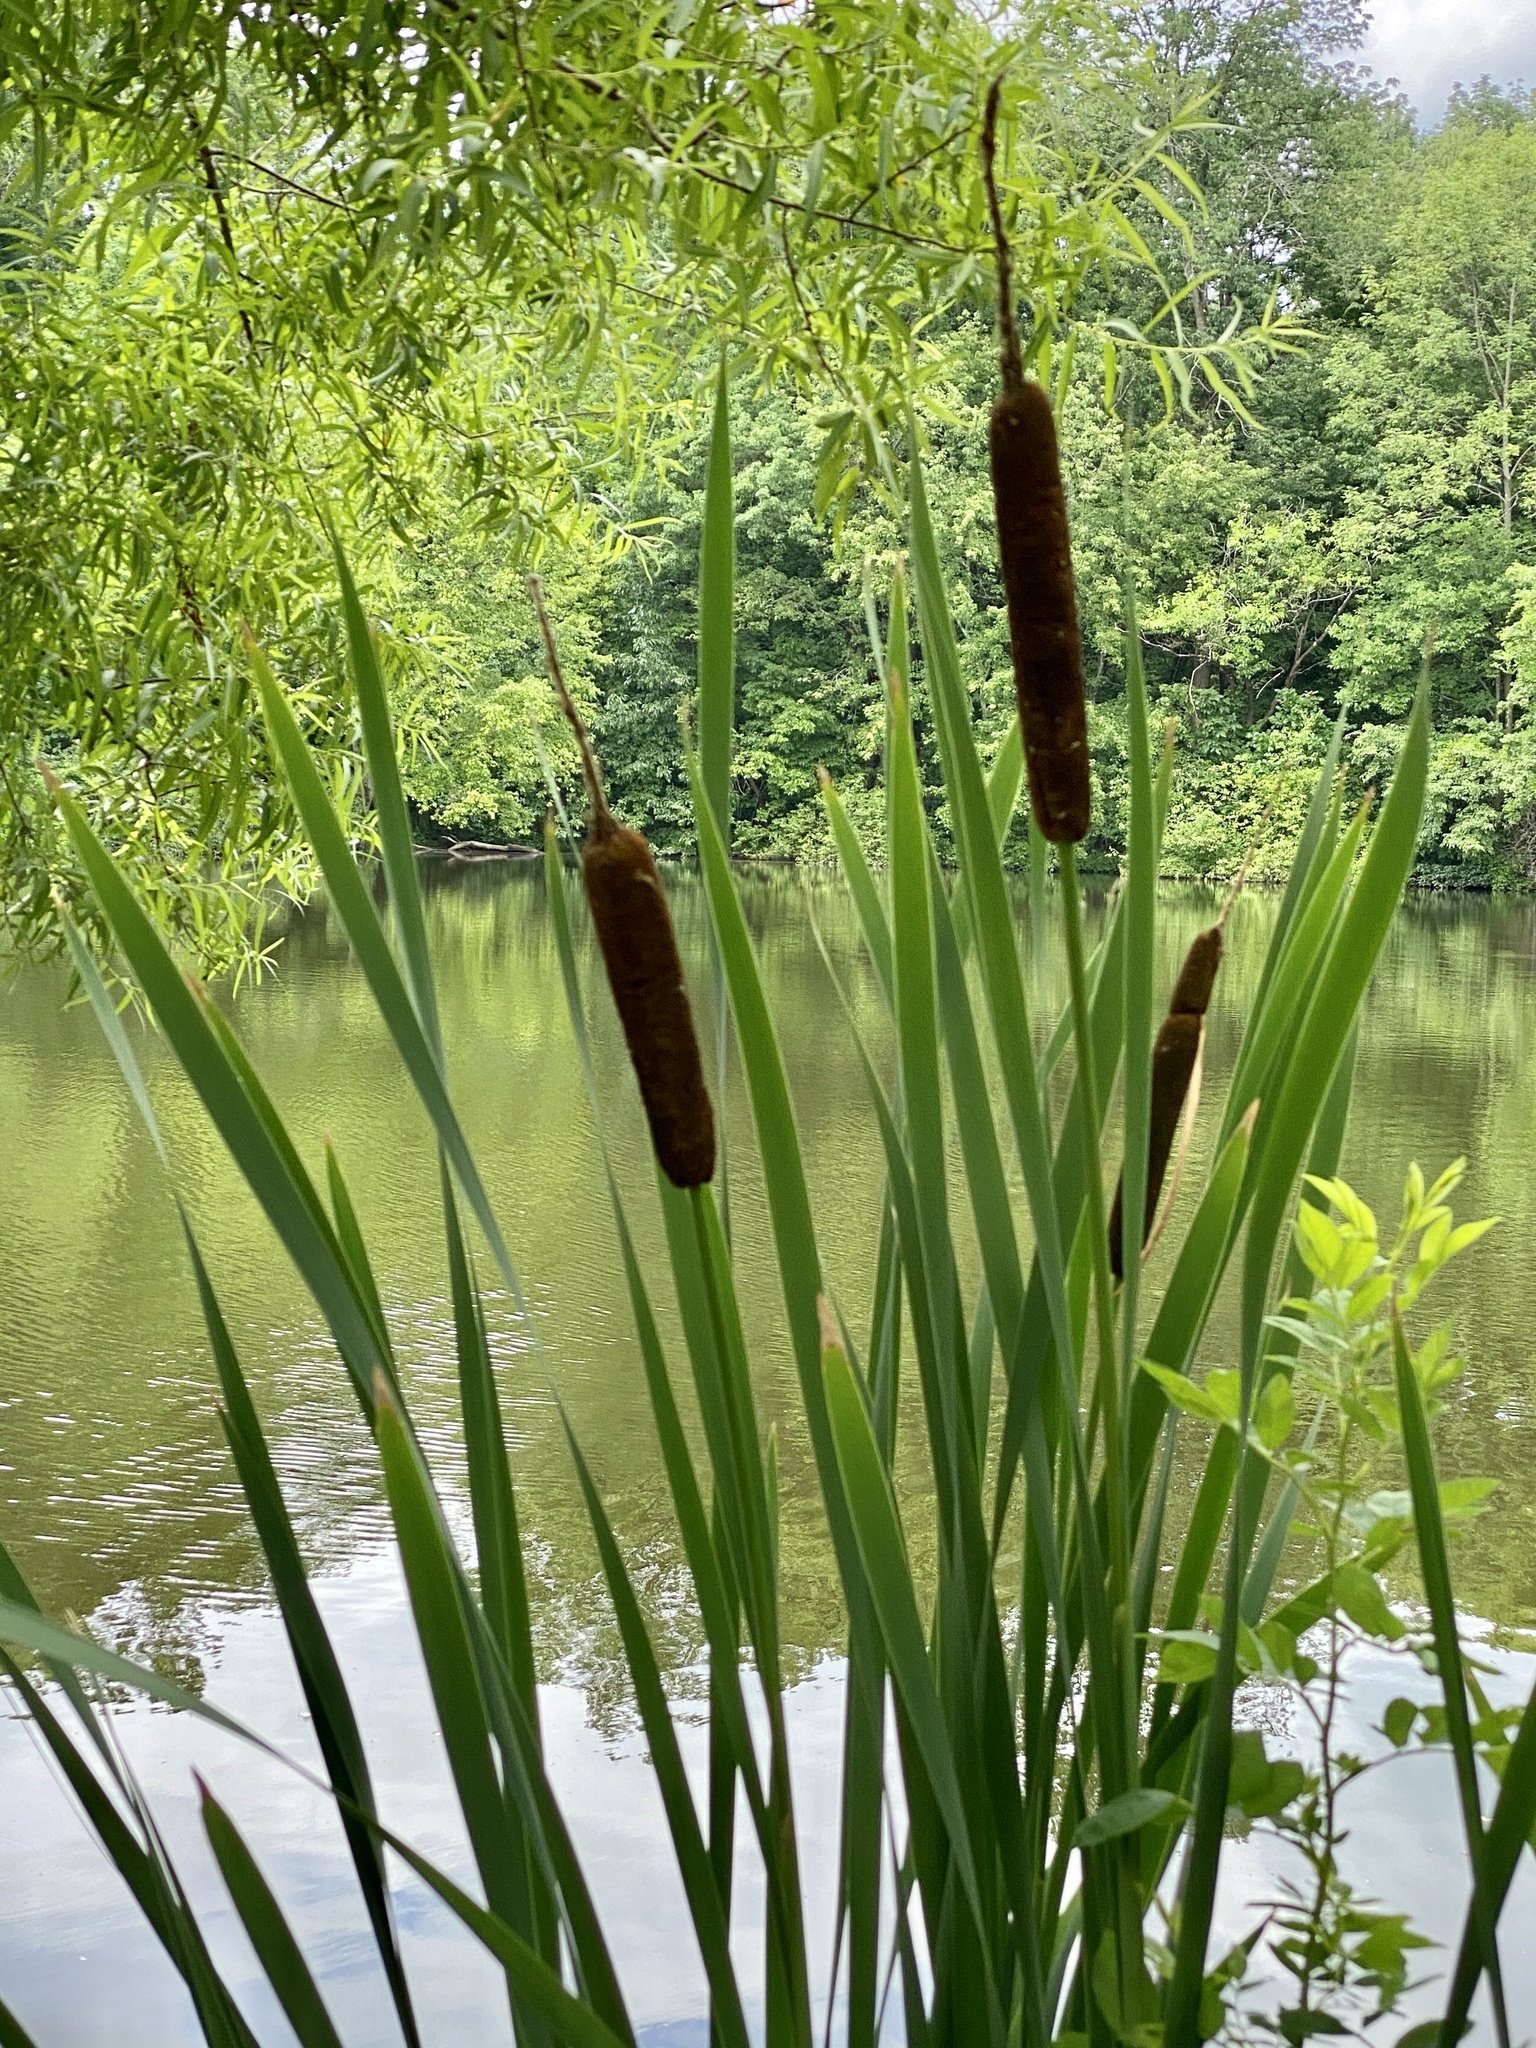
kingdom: Plantae
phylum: Tracheophyta
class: Liliopsida
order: Poales
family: Typhaceae
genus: Typha
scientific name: Typha latifolia
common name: Broadleaf cattail
